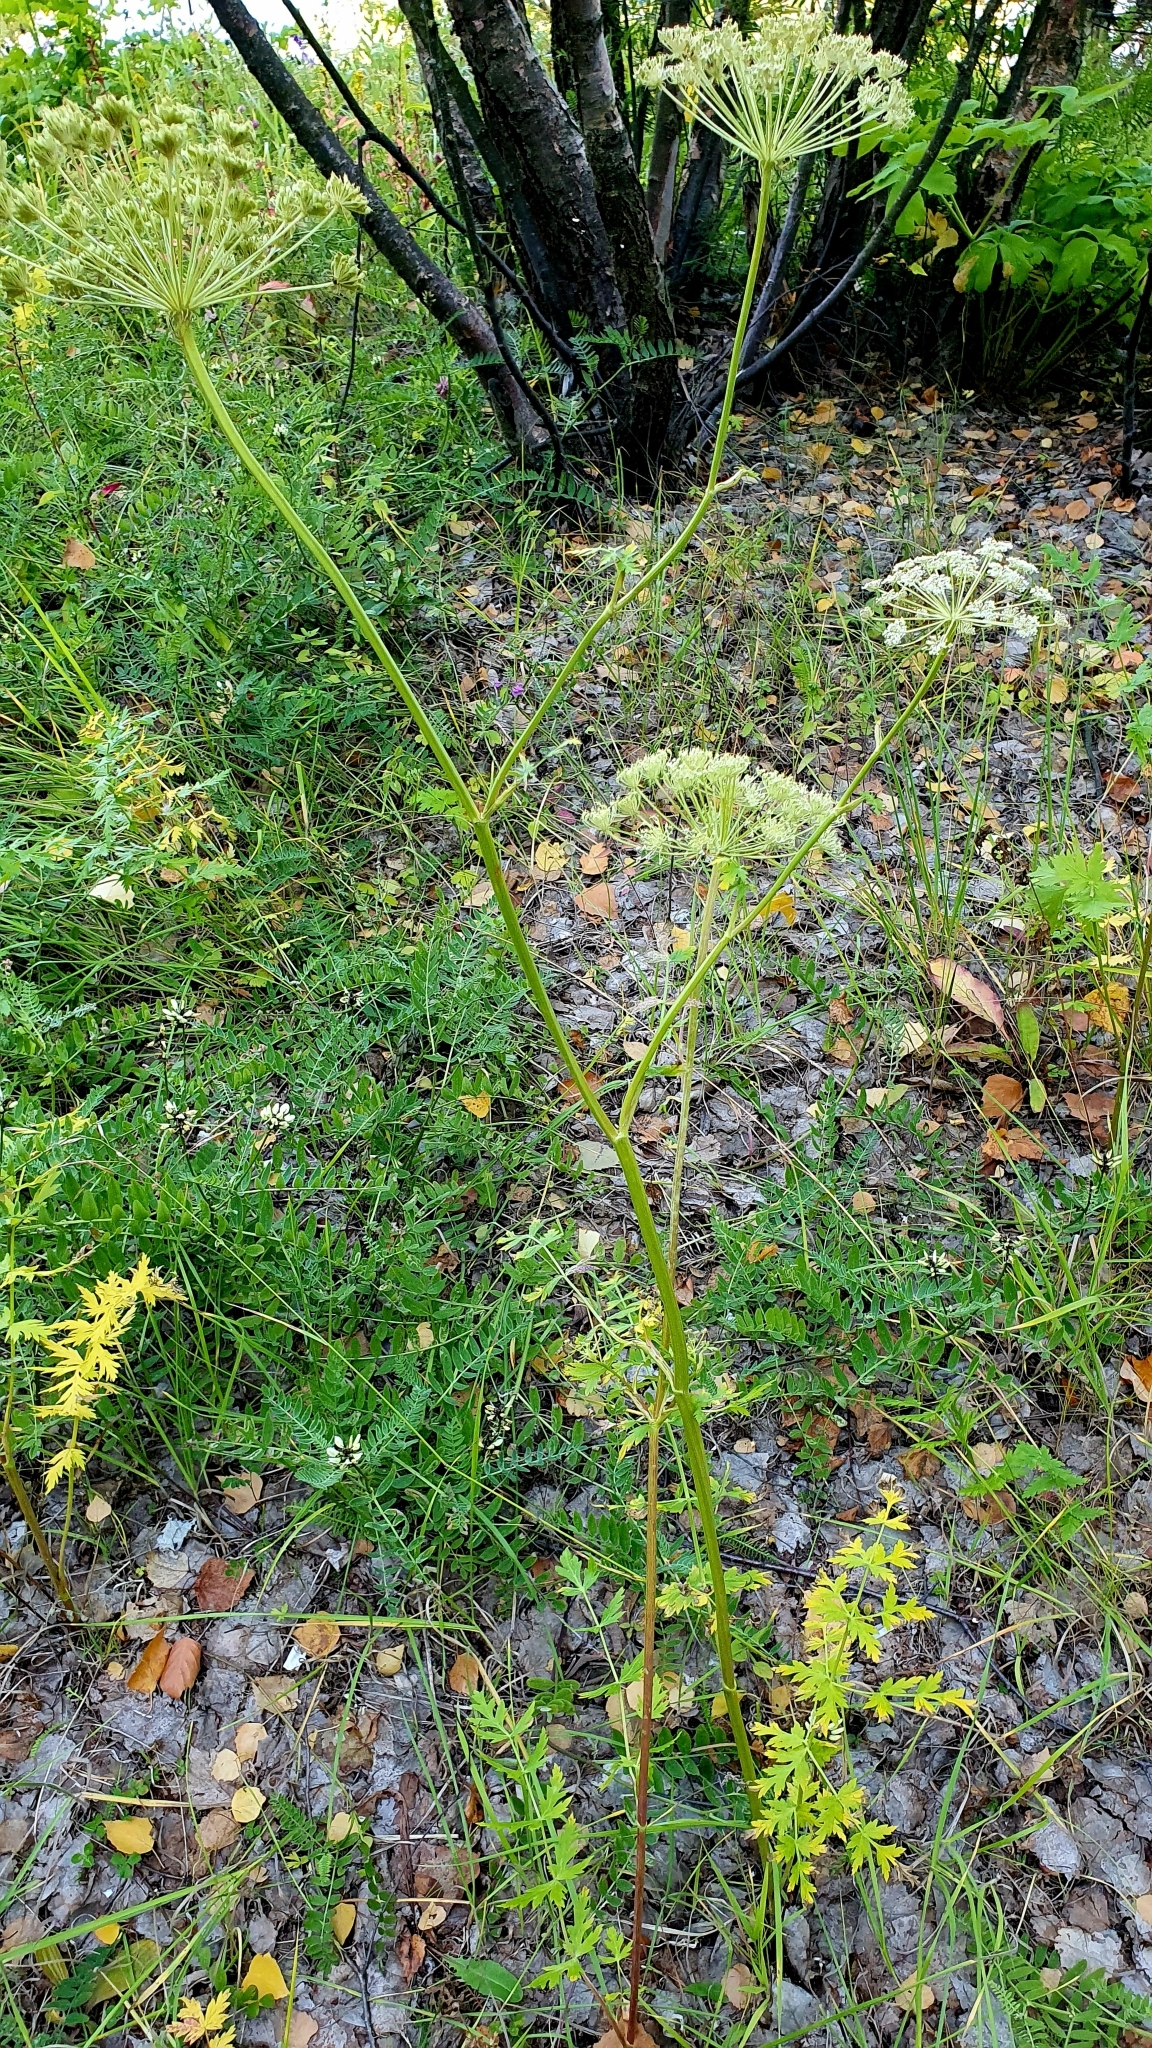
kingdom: Plantae
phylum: Tracheophyta
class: Magnoliopsida
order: Apiales
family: Apiaceae
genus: Seseli
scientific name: Seseli libanotis
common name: Mooncarrot
